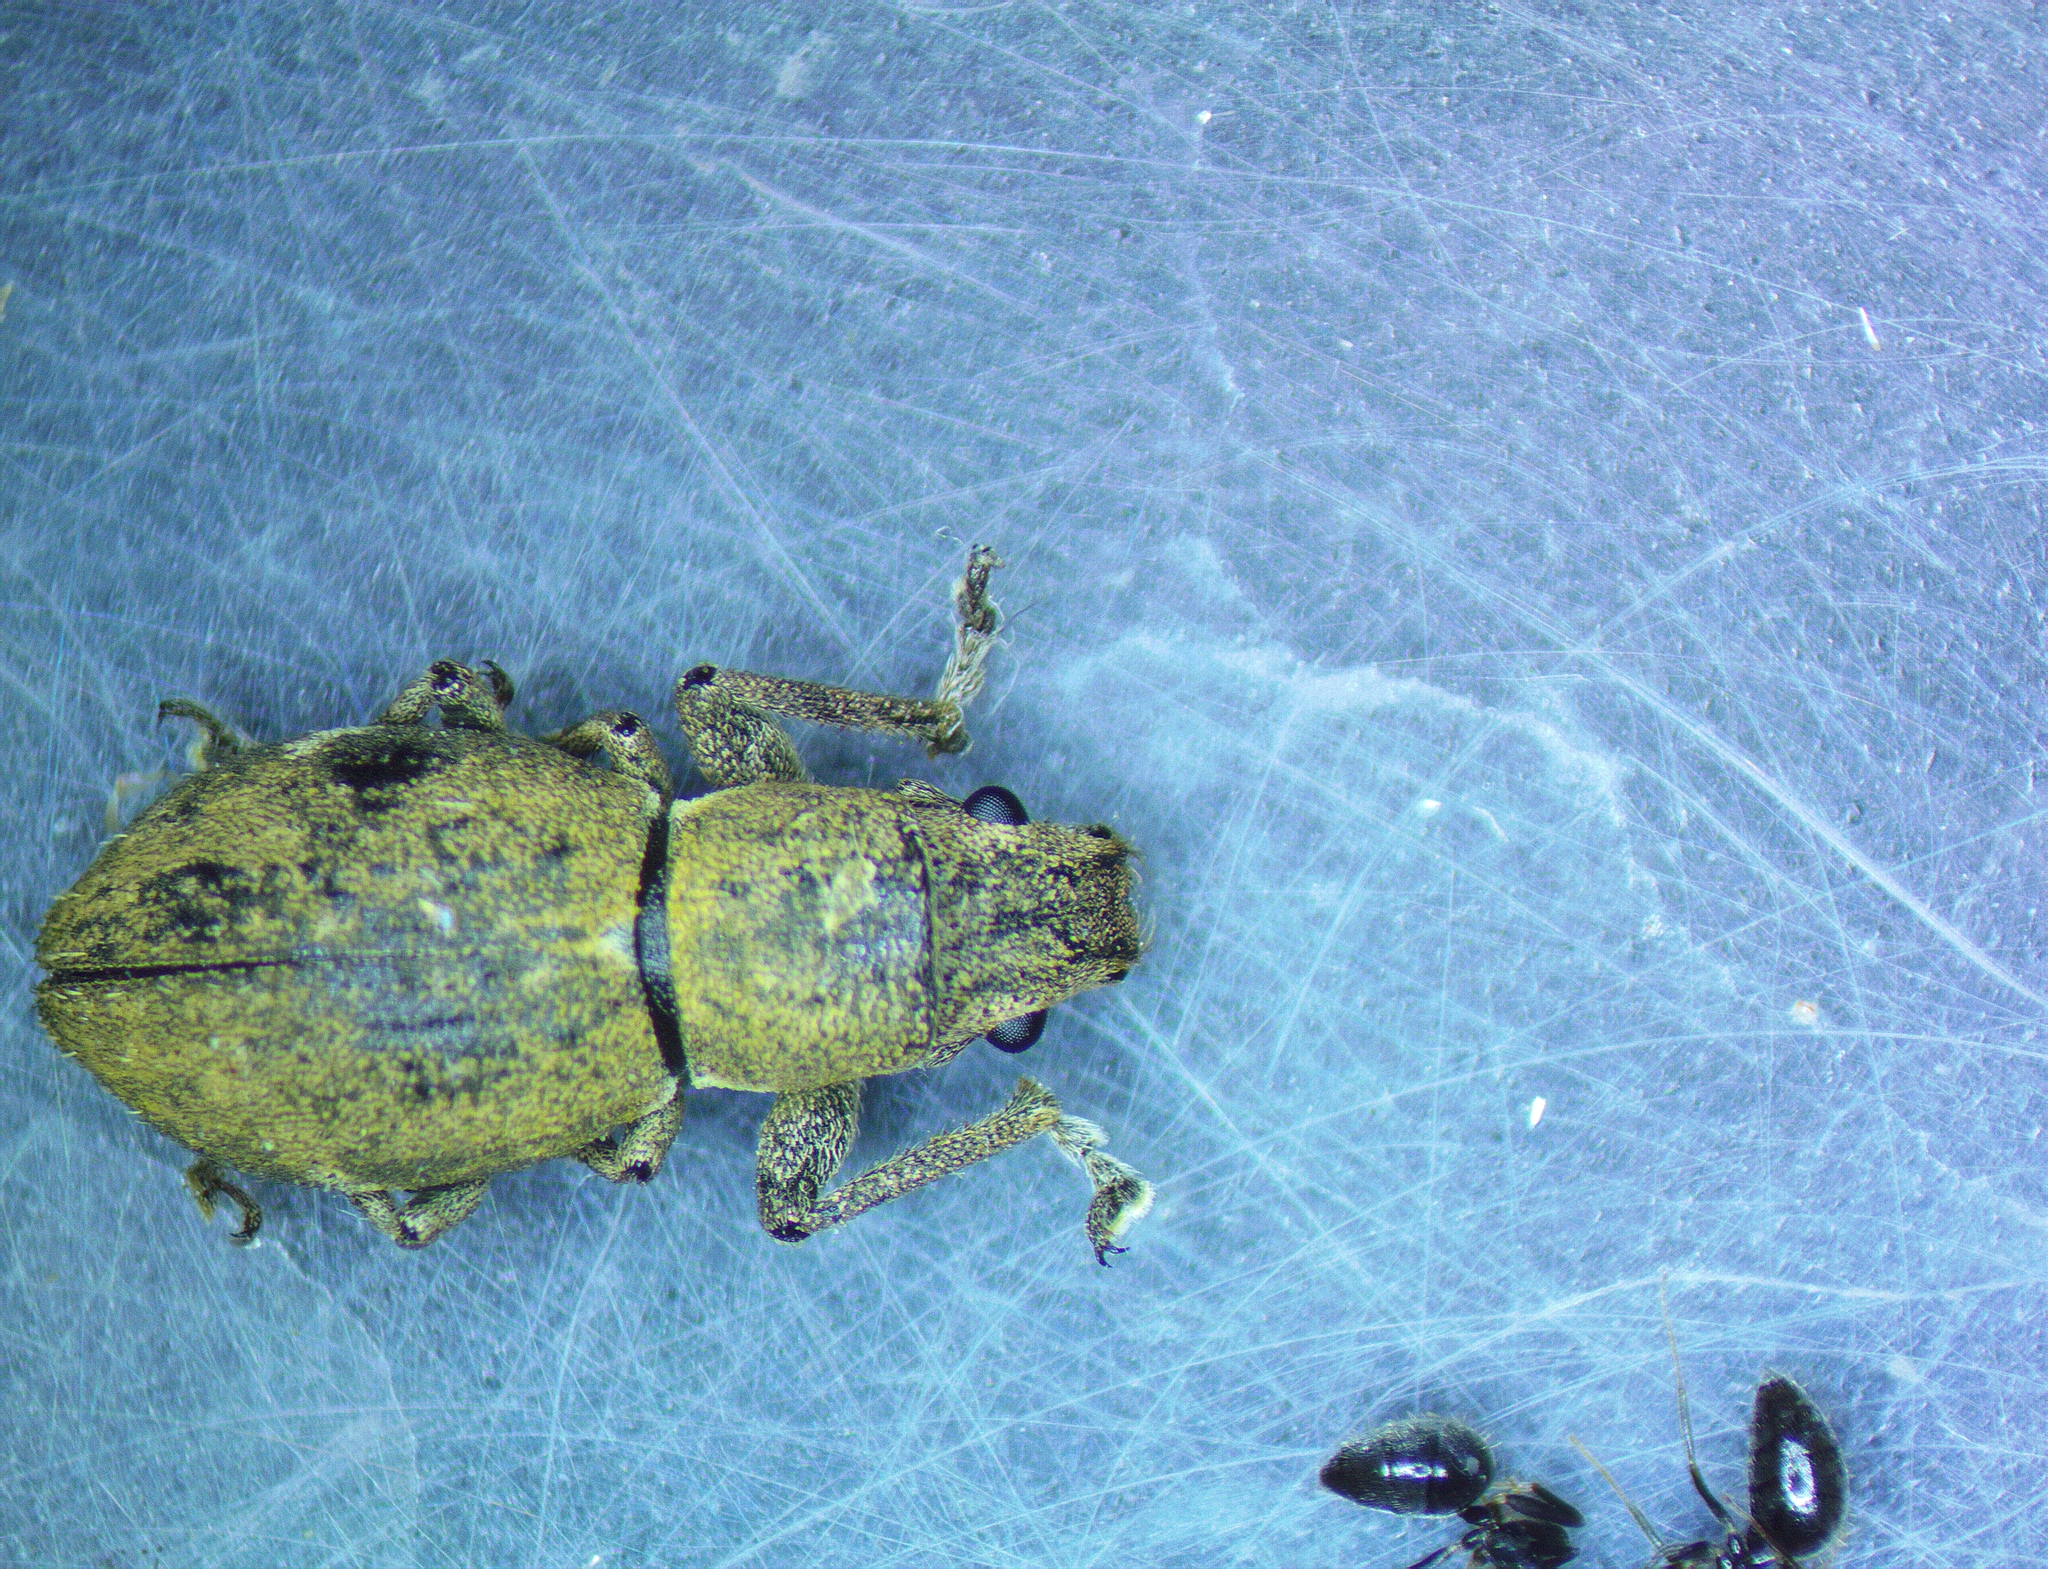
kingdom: Animalia
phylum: Arthropoda
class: Insecta
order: Coleoptera
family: Curculionidae
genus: Naupactus
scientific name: Naupactus cervinus
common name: Fuller rose beetle
